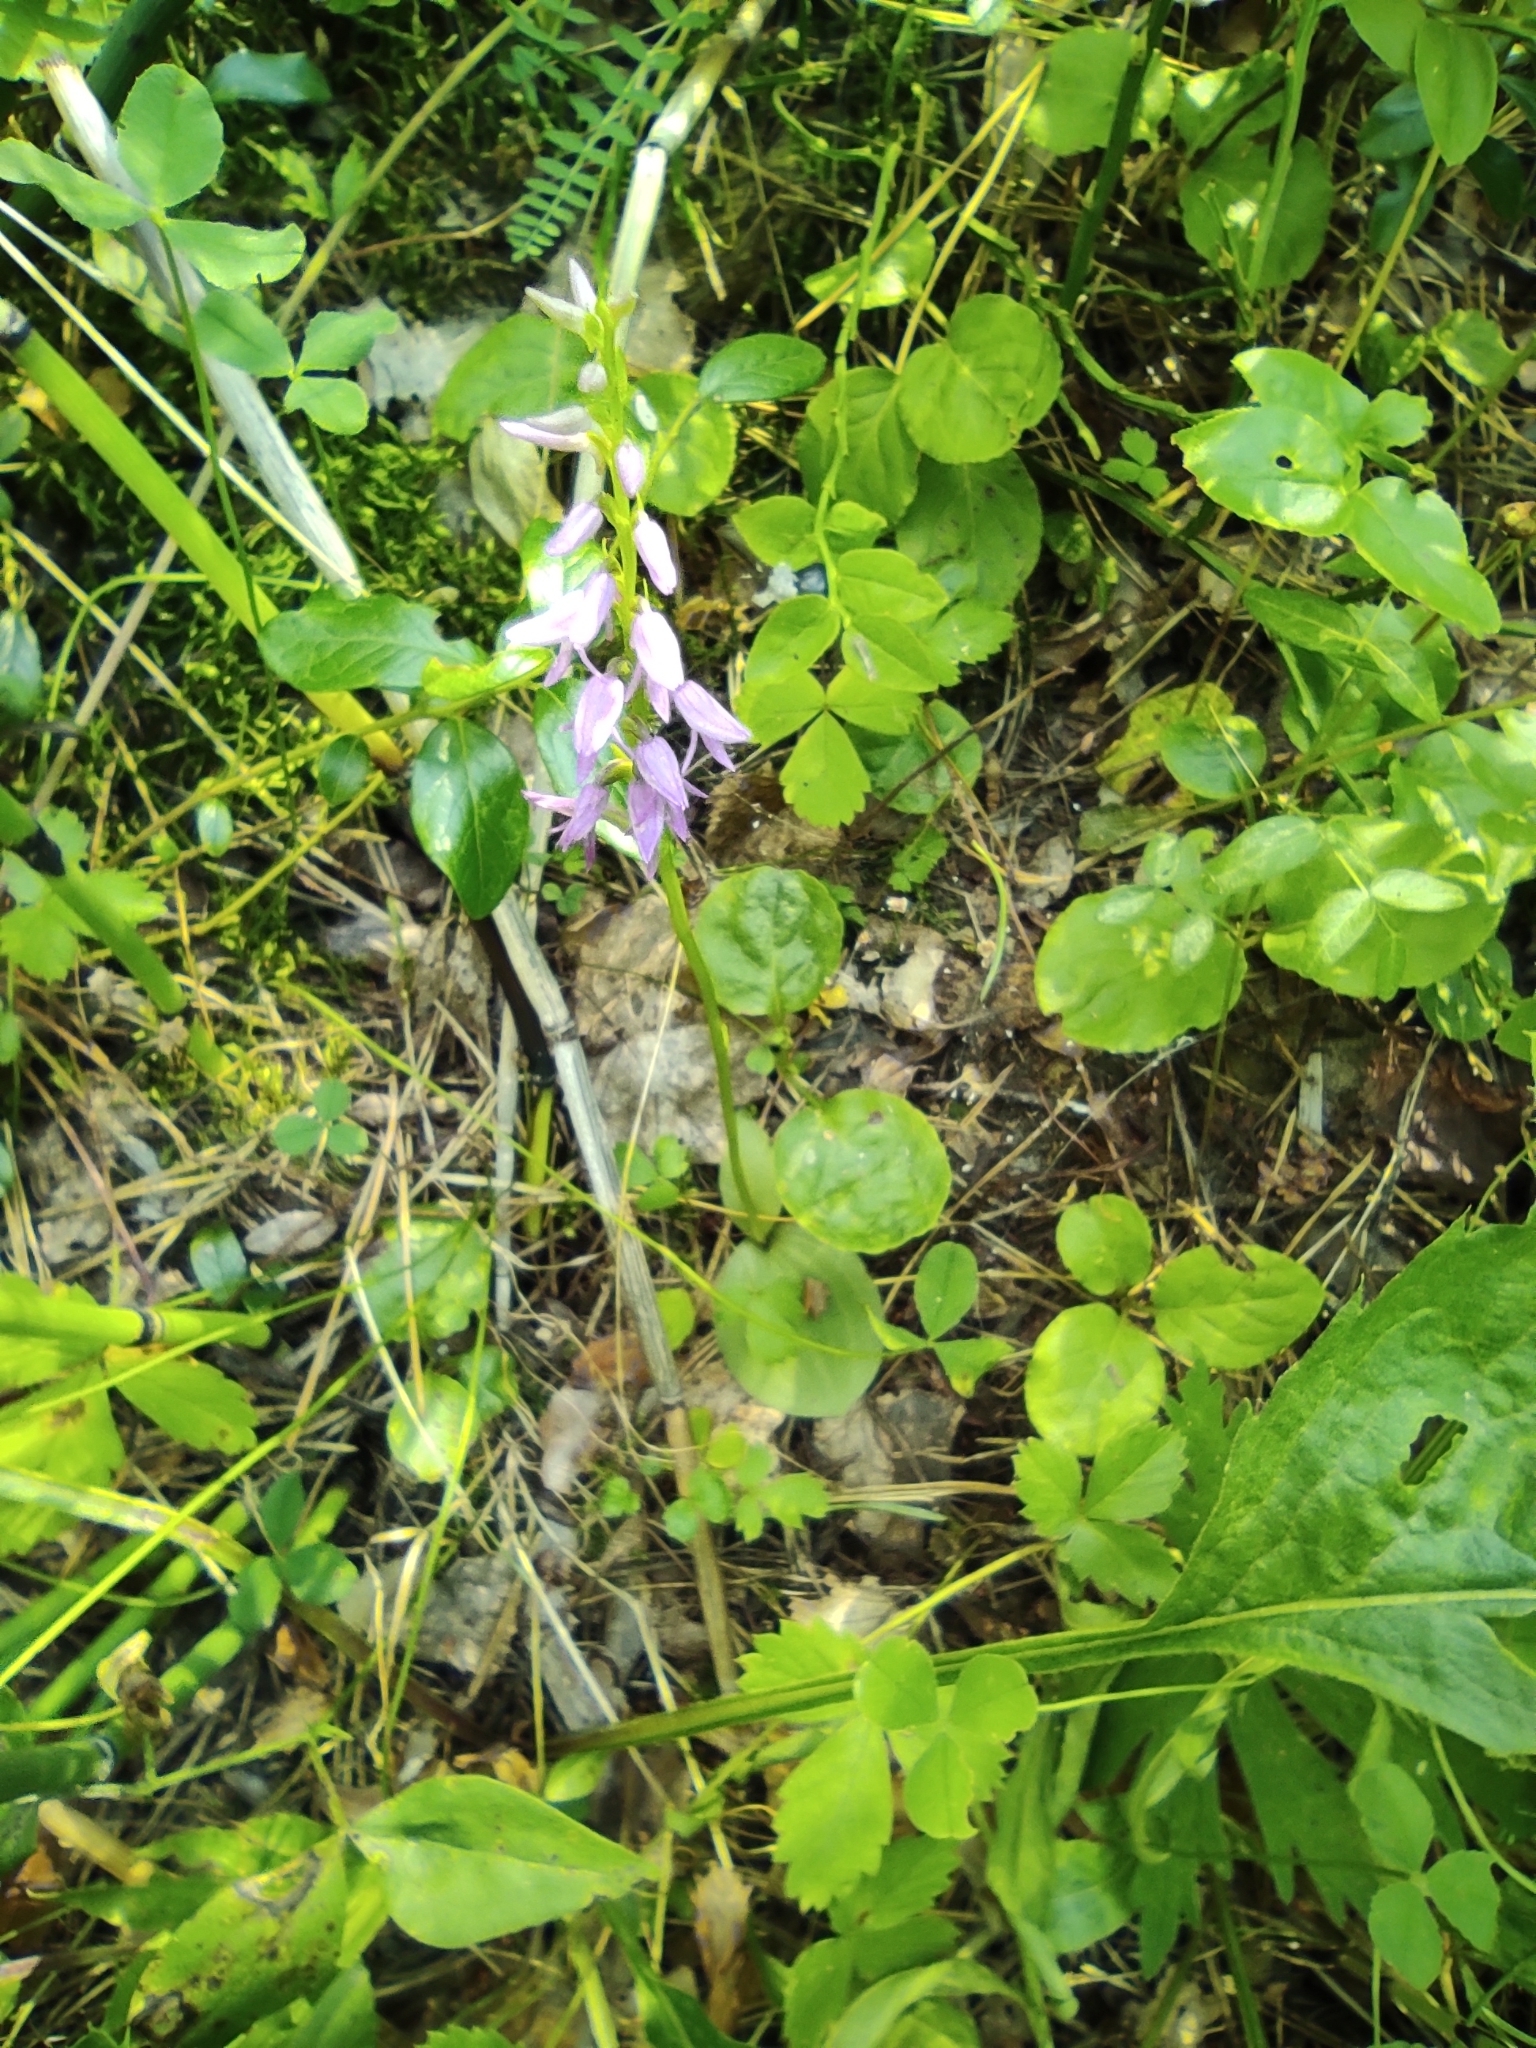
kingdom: Plantae
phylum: Tracheophyta
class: Liliopsida
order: Asparagales
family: Orchidaceae
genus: Hemipilia
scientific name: Hemipilia cucullata
